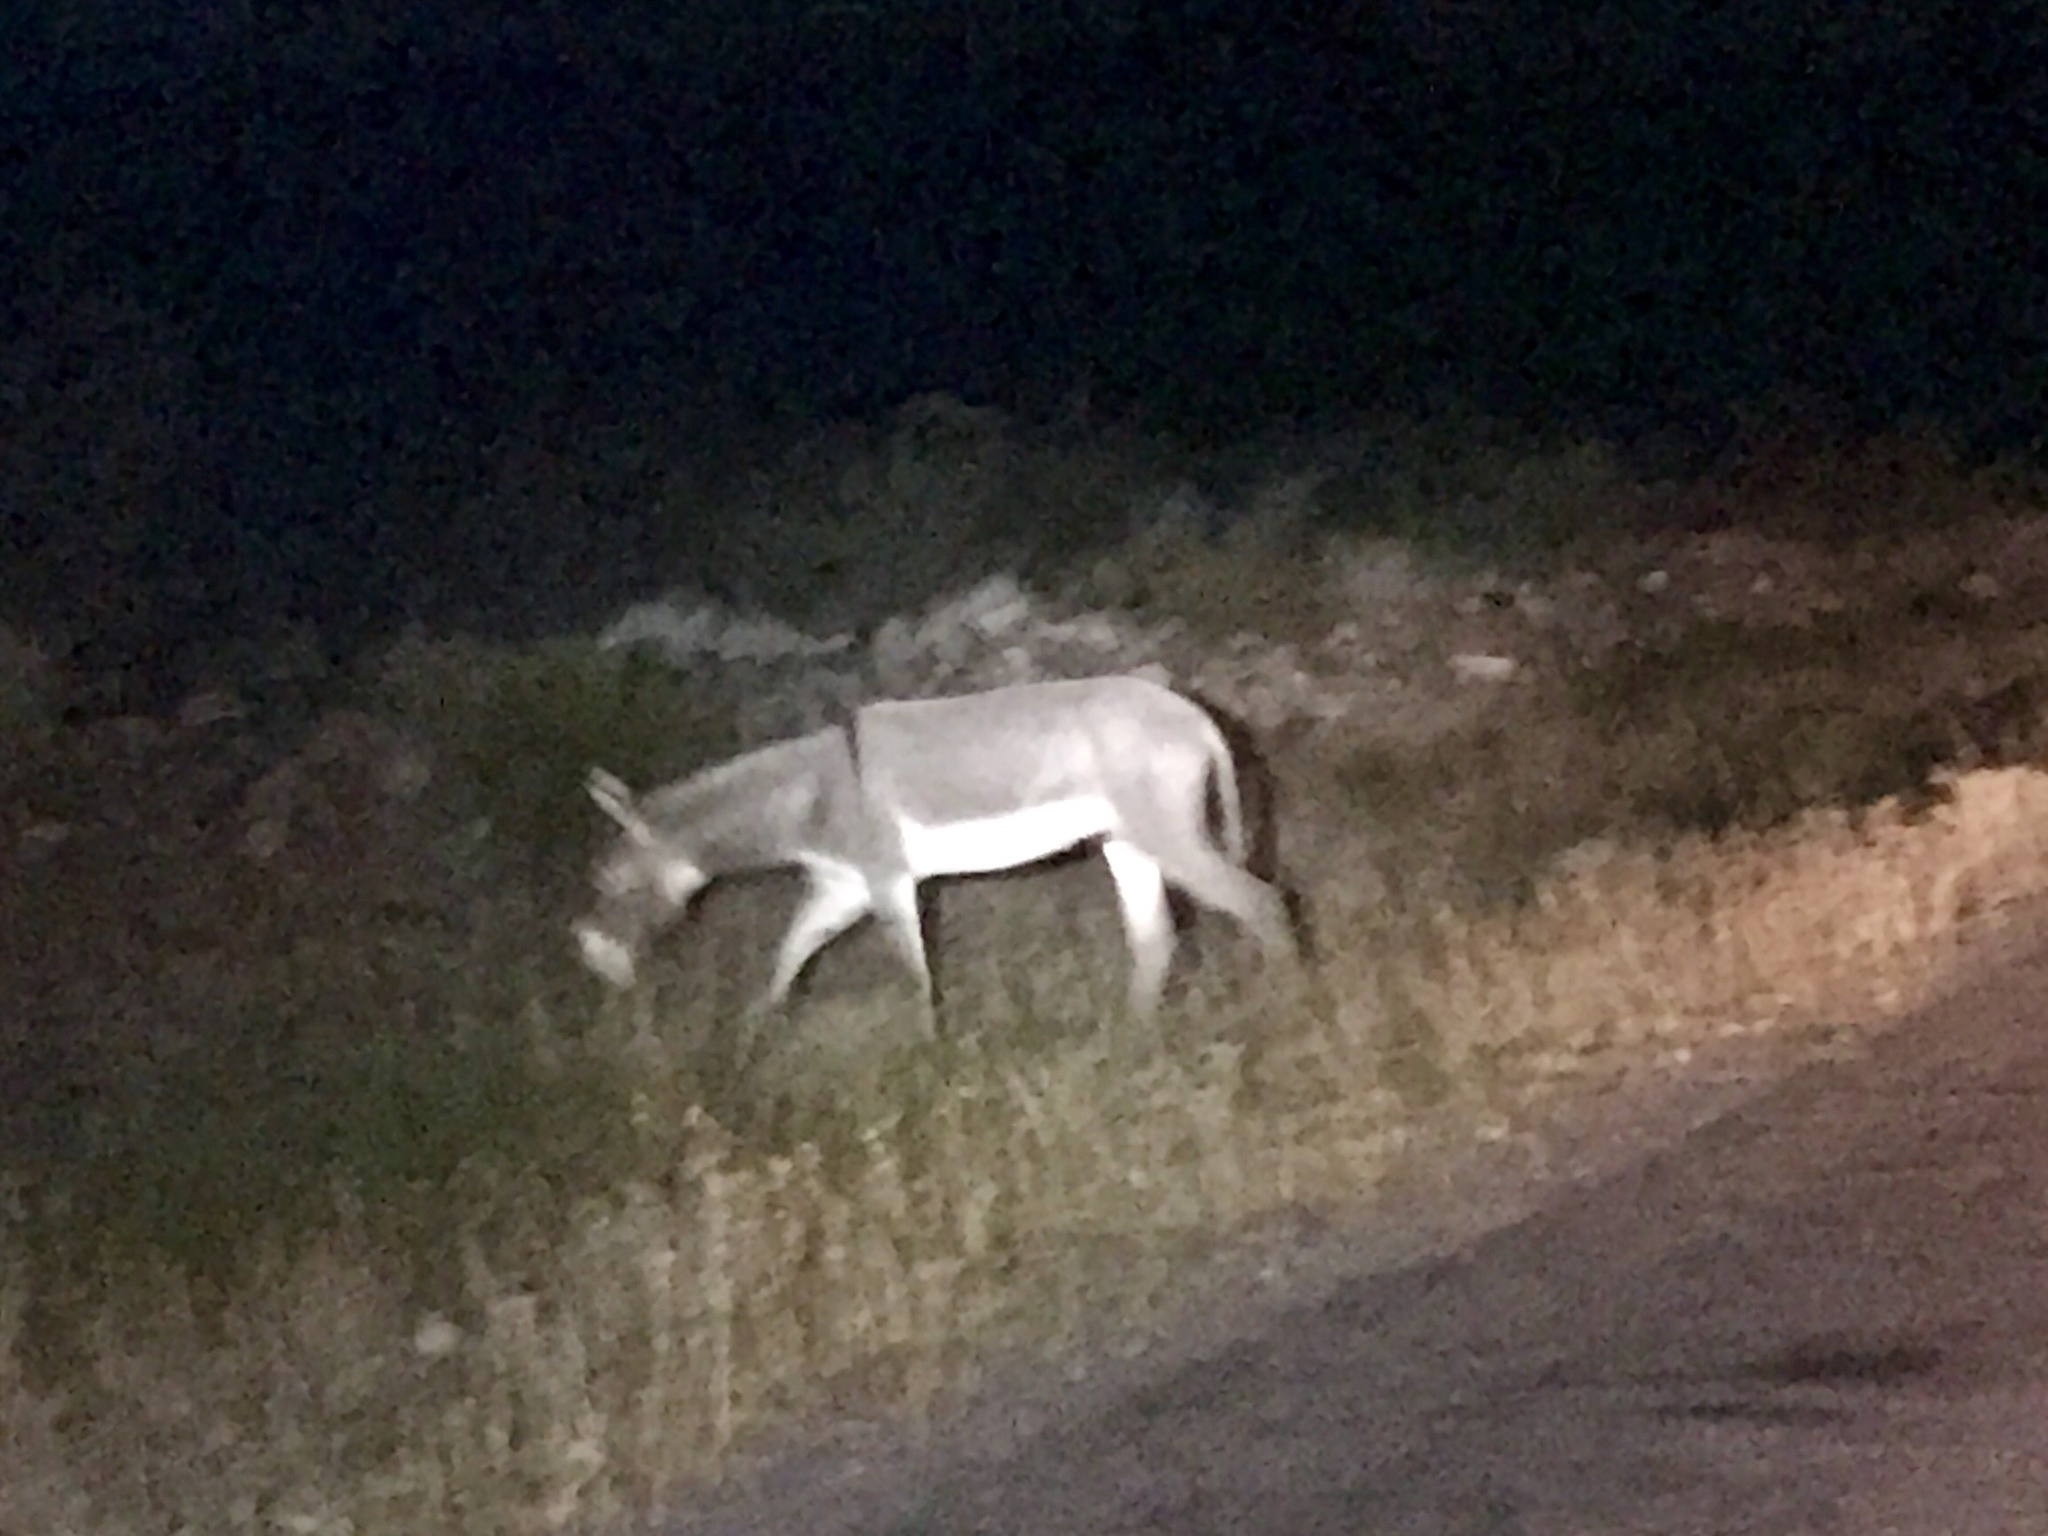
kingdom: Animalia
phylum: Chordata
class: Mammalia
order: Perissodactyla
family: Equidae
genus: Equus
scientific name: Equus asinus
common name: Ass
